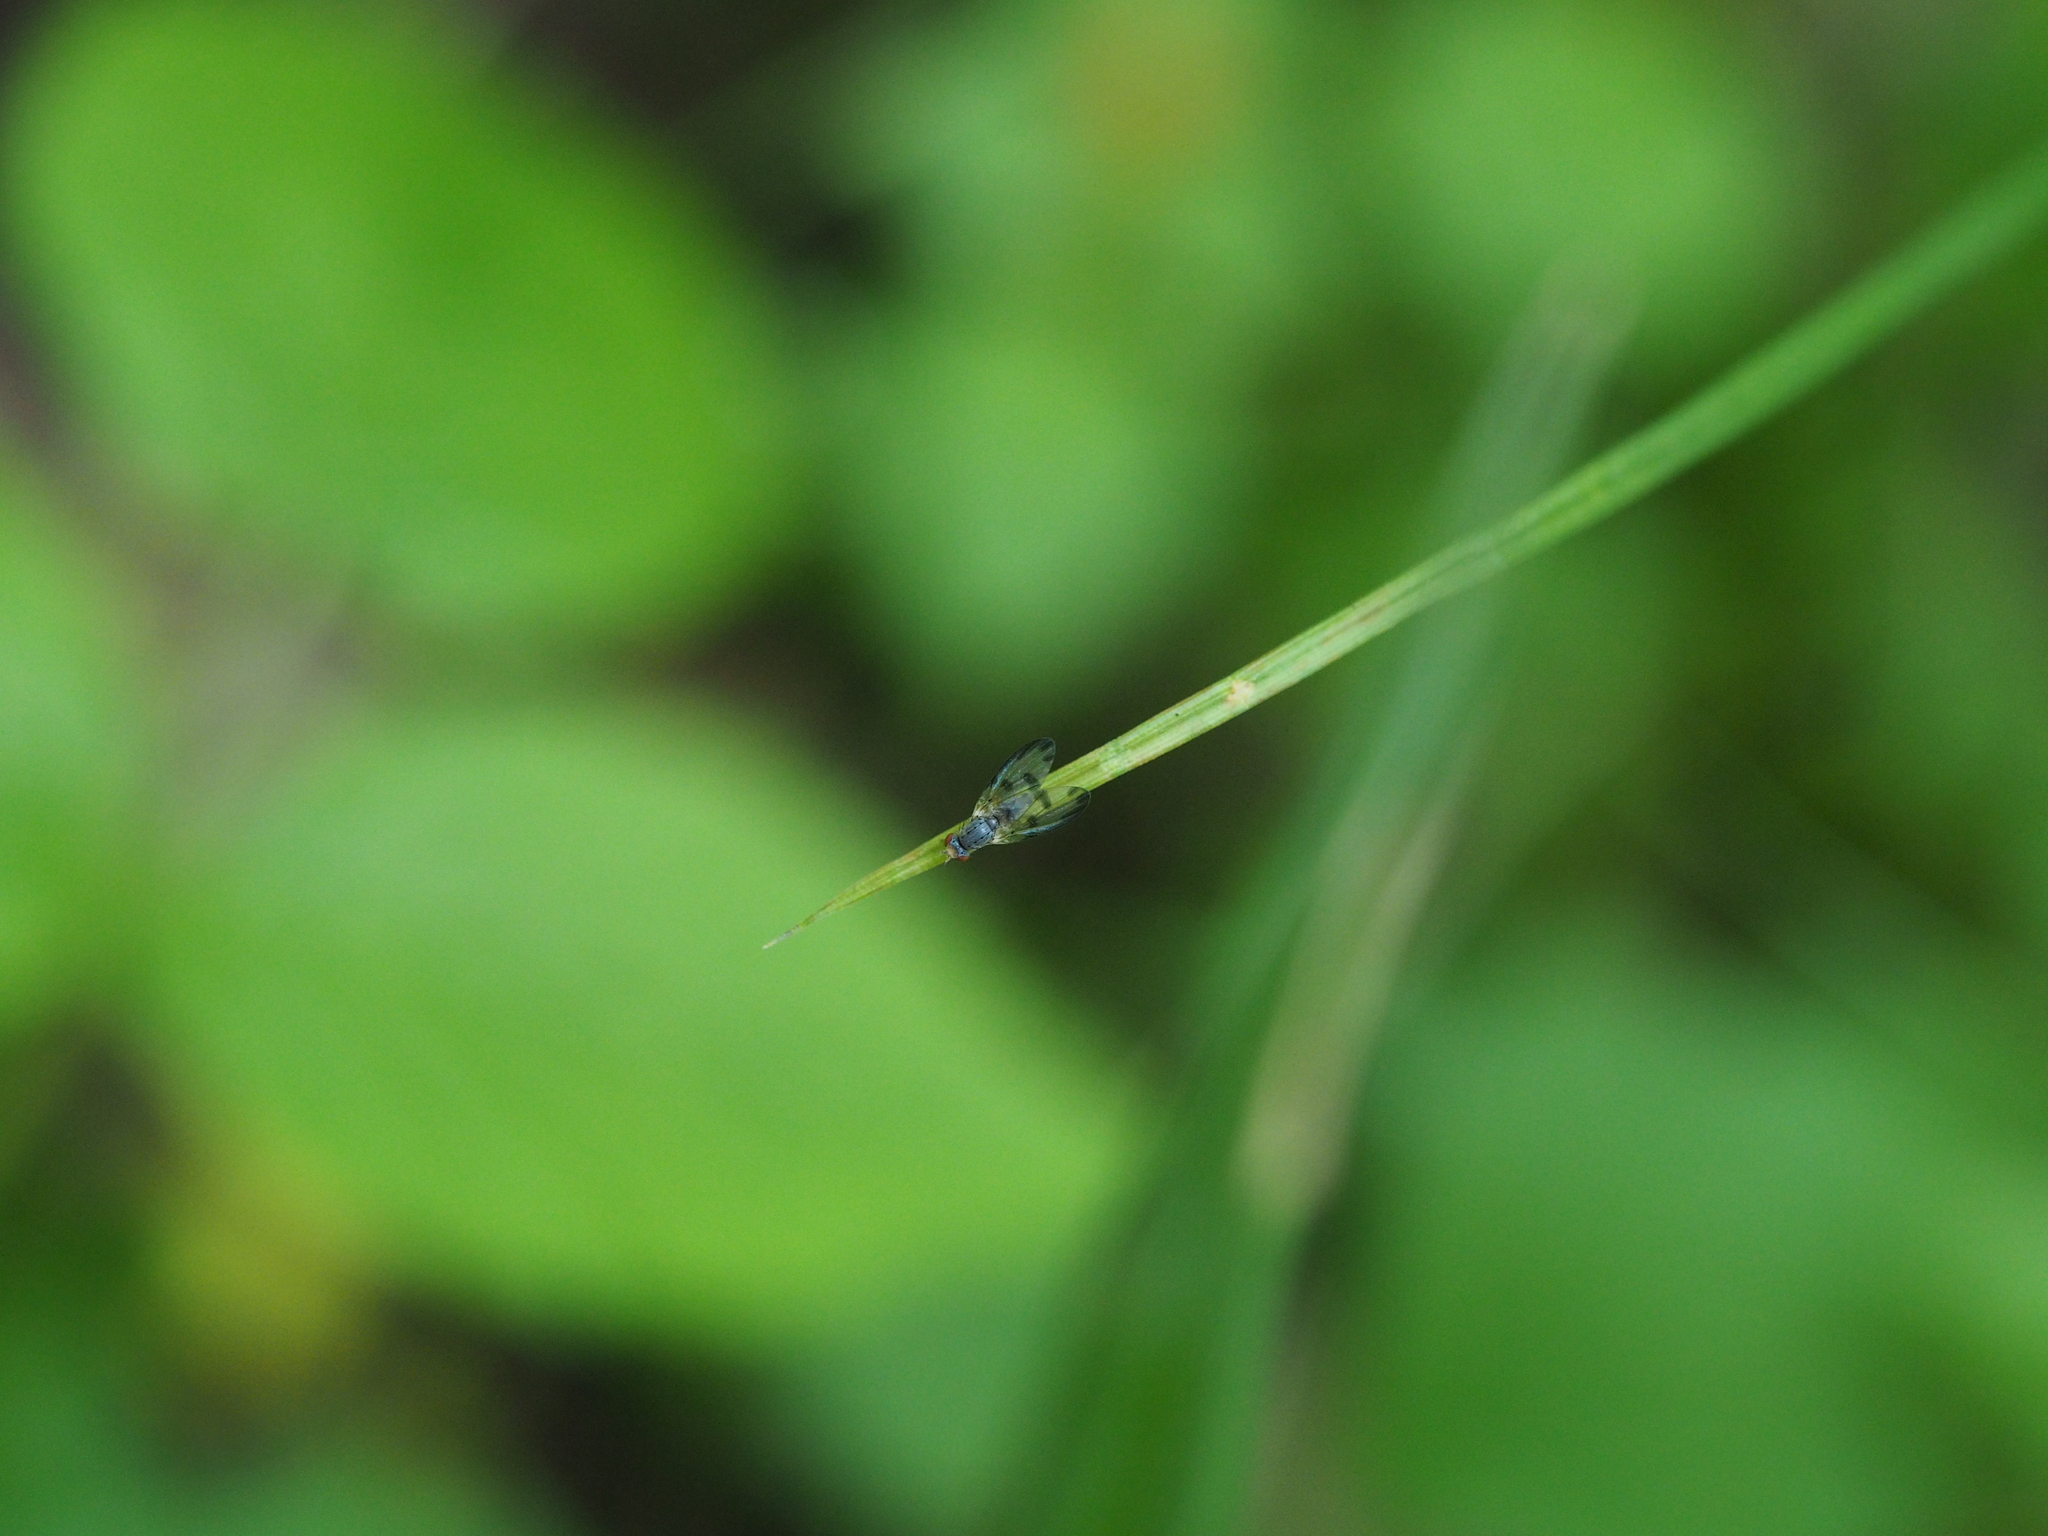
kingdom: Animalia
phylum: Arthropoda
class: Insecta
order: Diptera
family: Pallopteridae
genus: Palloptera
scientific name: Palloptera umbellatarum
